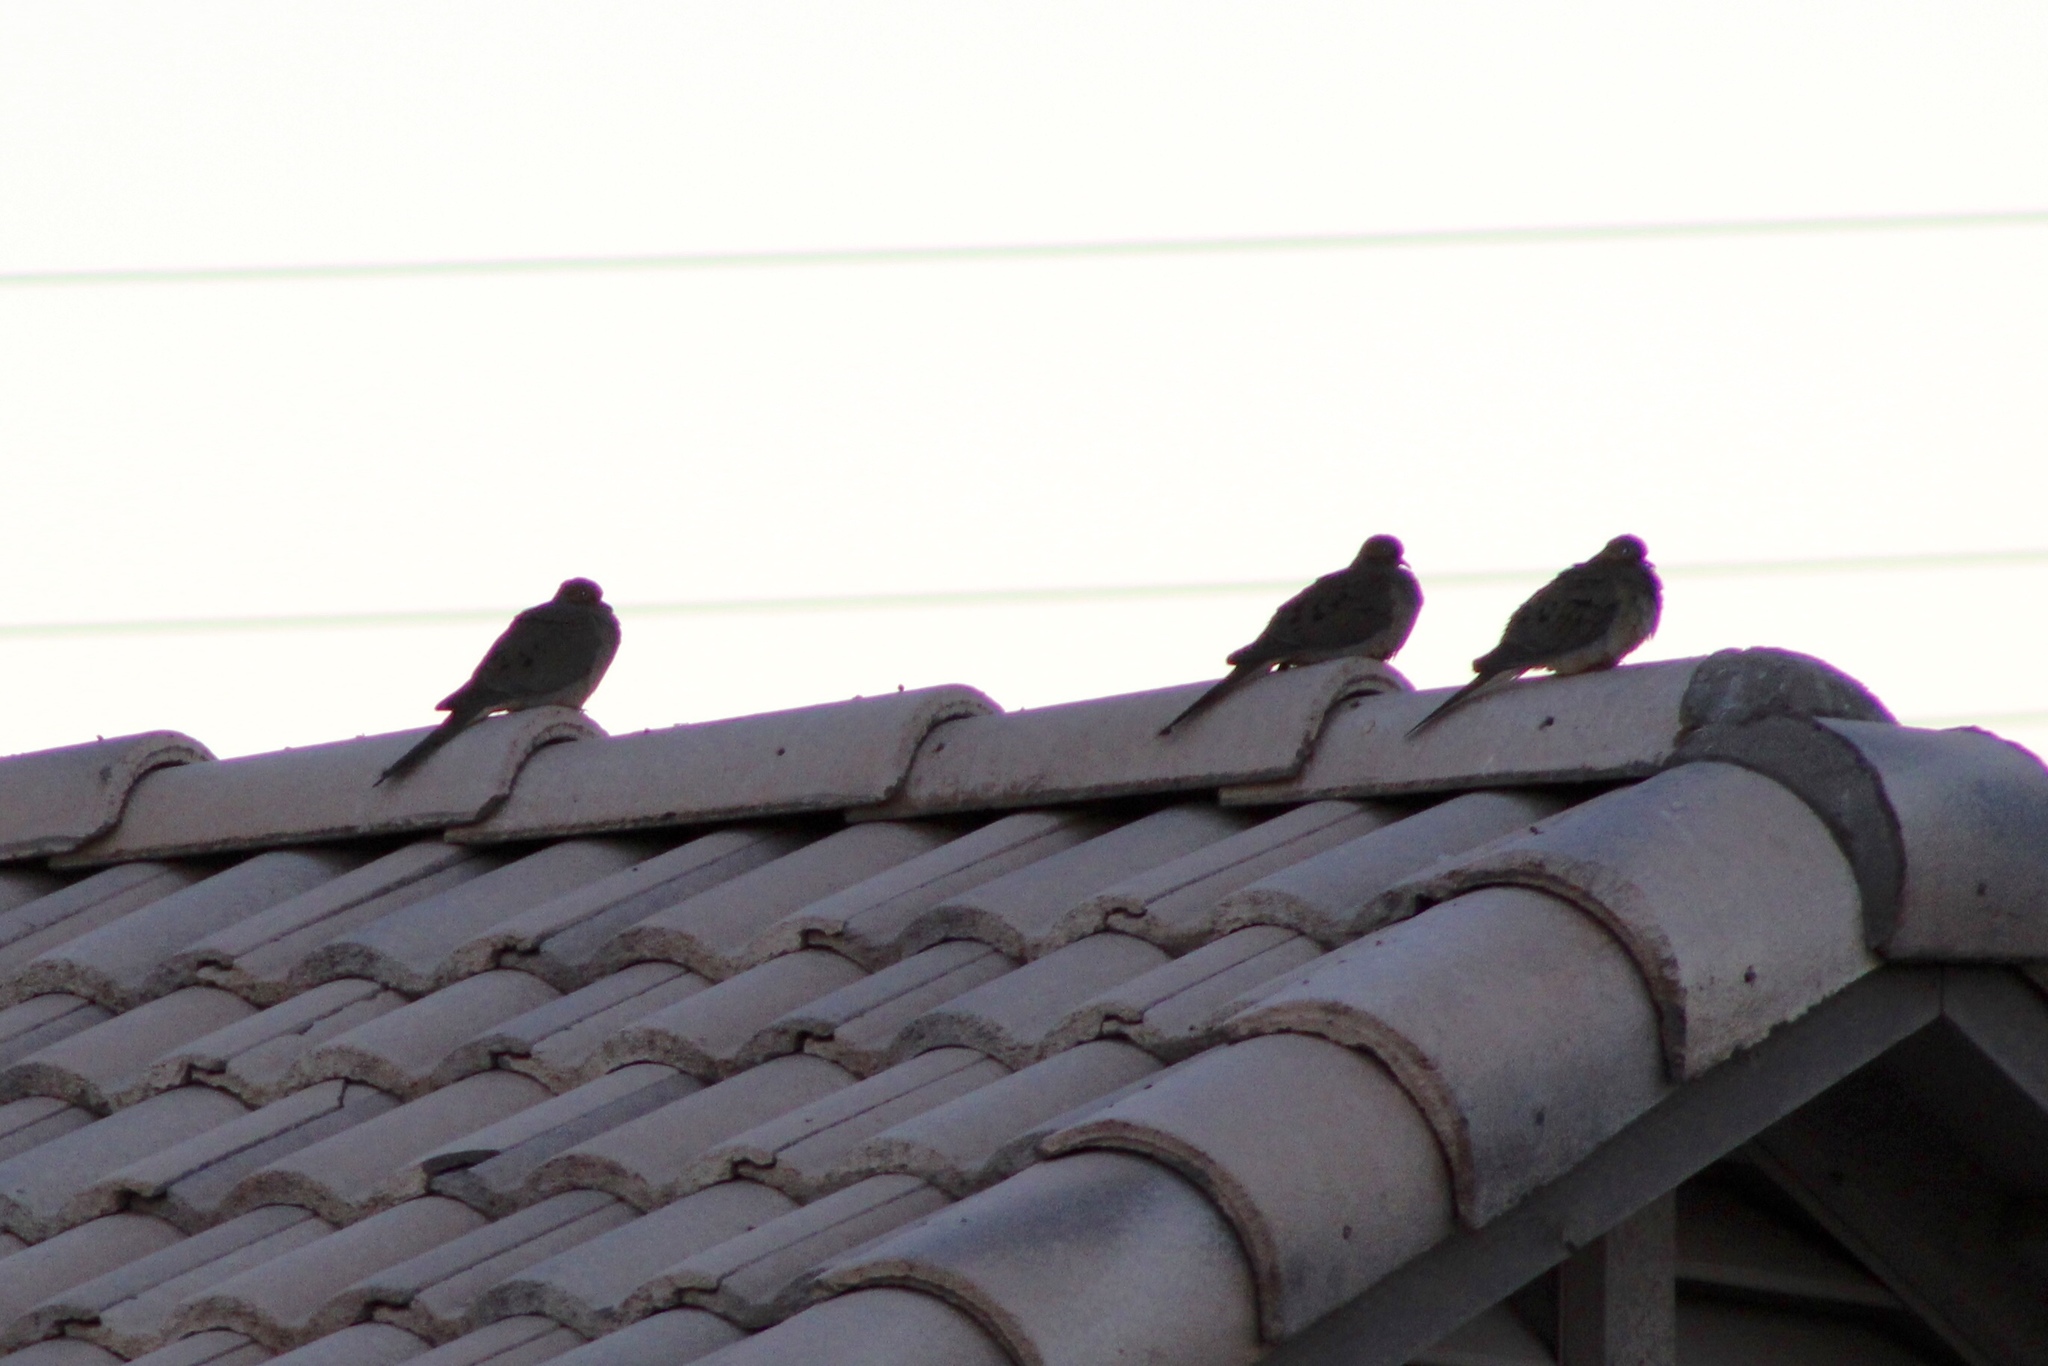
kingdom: Animalia
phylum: Chordata
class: Aves
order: Columbiformes
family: Columbidae
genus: Zenaida
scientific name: Zenaida macroura
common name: Mourning dove
